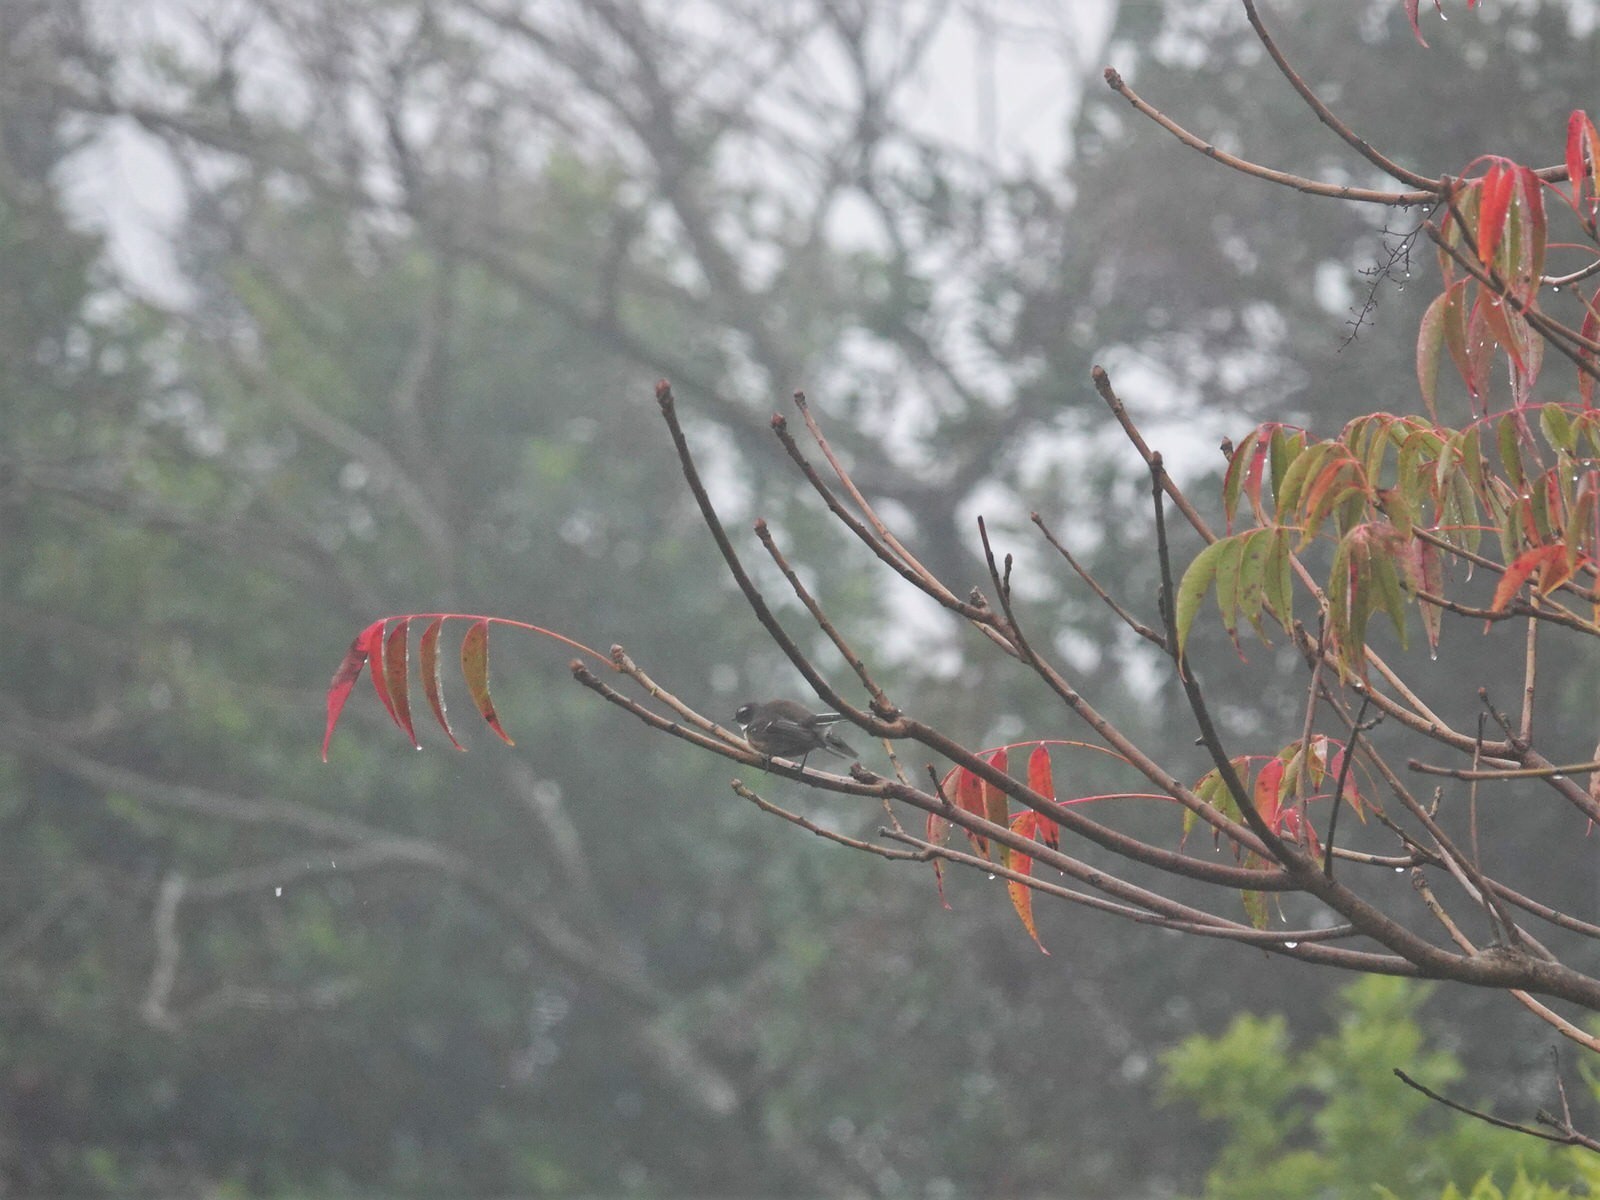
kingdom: Animalia
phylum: Chordata
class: Aves
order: Passeriformes
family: Rhipiduridae
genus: Rhipidura
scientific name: Rhipidura fuliginosa
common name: New zealand fantail
